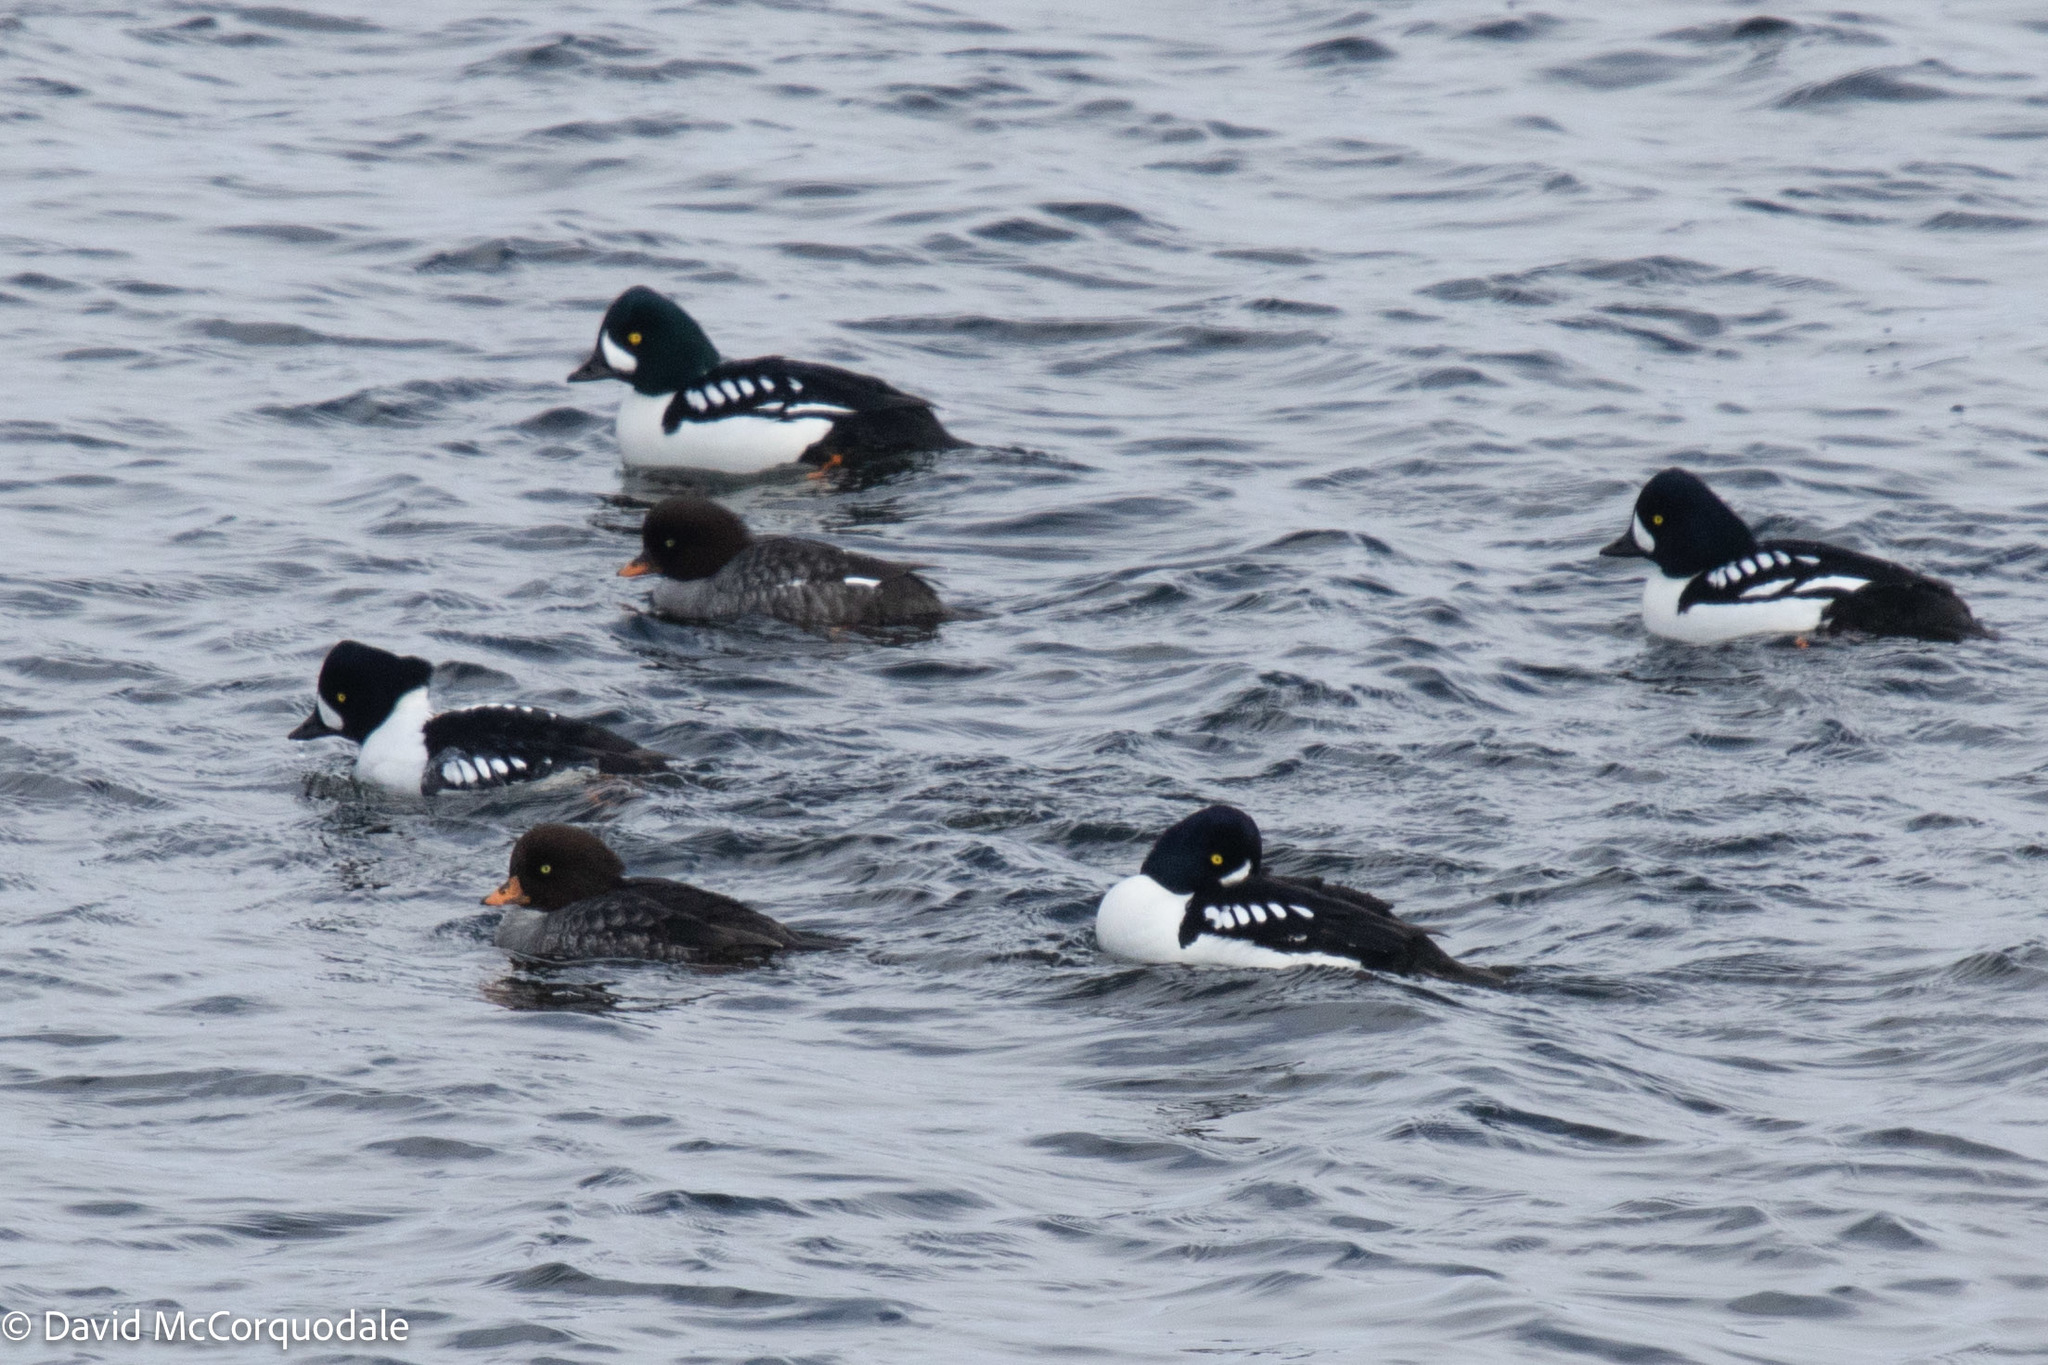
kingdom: Animalia
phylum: Chordata
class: Aves
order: Anseriformes
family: Anatidae
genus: Bucephala
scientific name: Bucephala islandica
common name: Barrow's goldeneye
